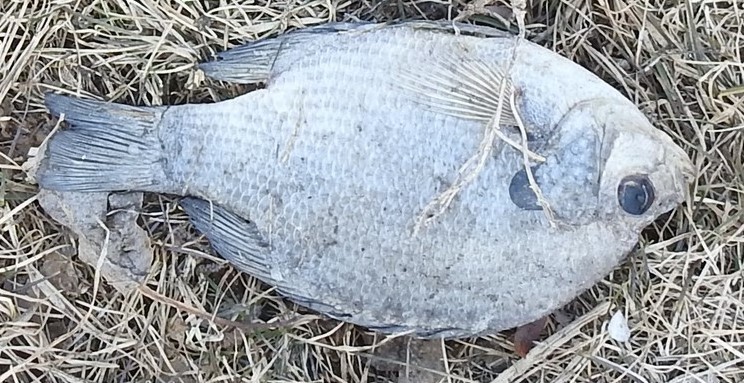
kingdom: Animalia
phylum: Chordata
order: Perciformes
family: Centrarchidae
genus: Lepomis
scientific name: Lepomis macrochirus
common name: Bluegill
